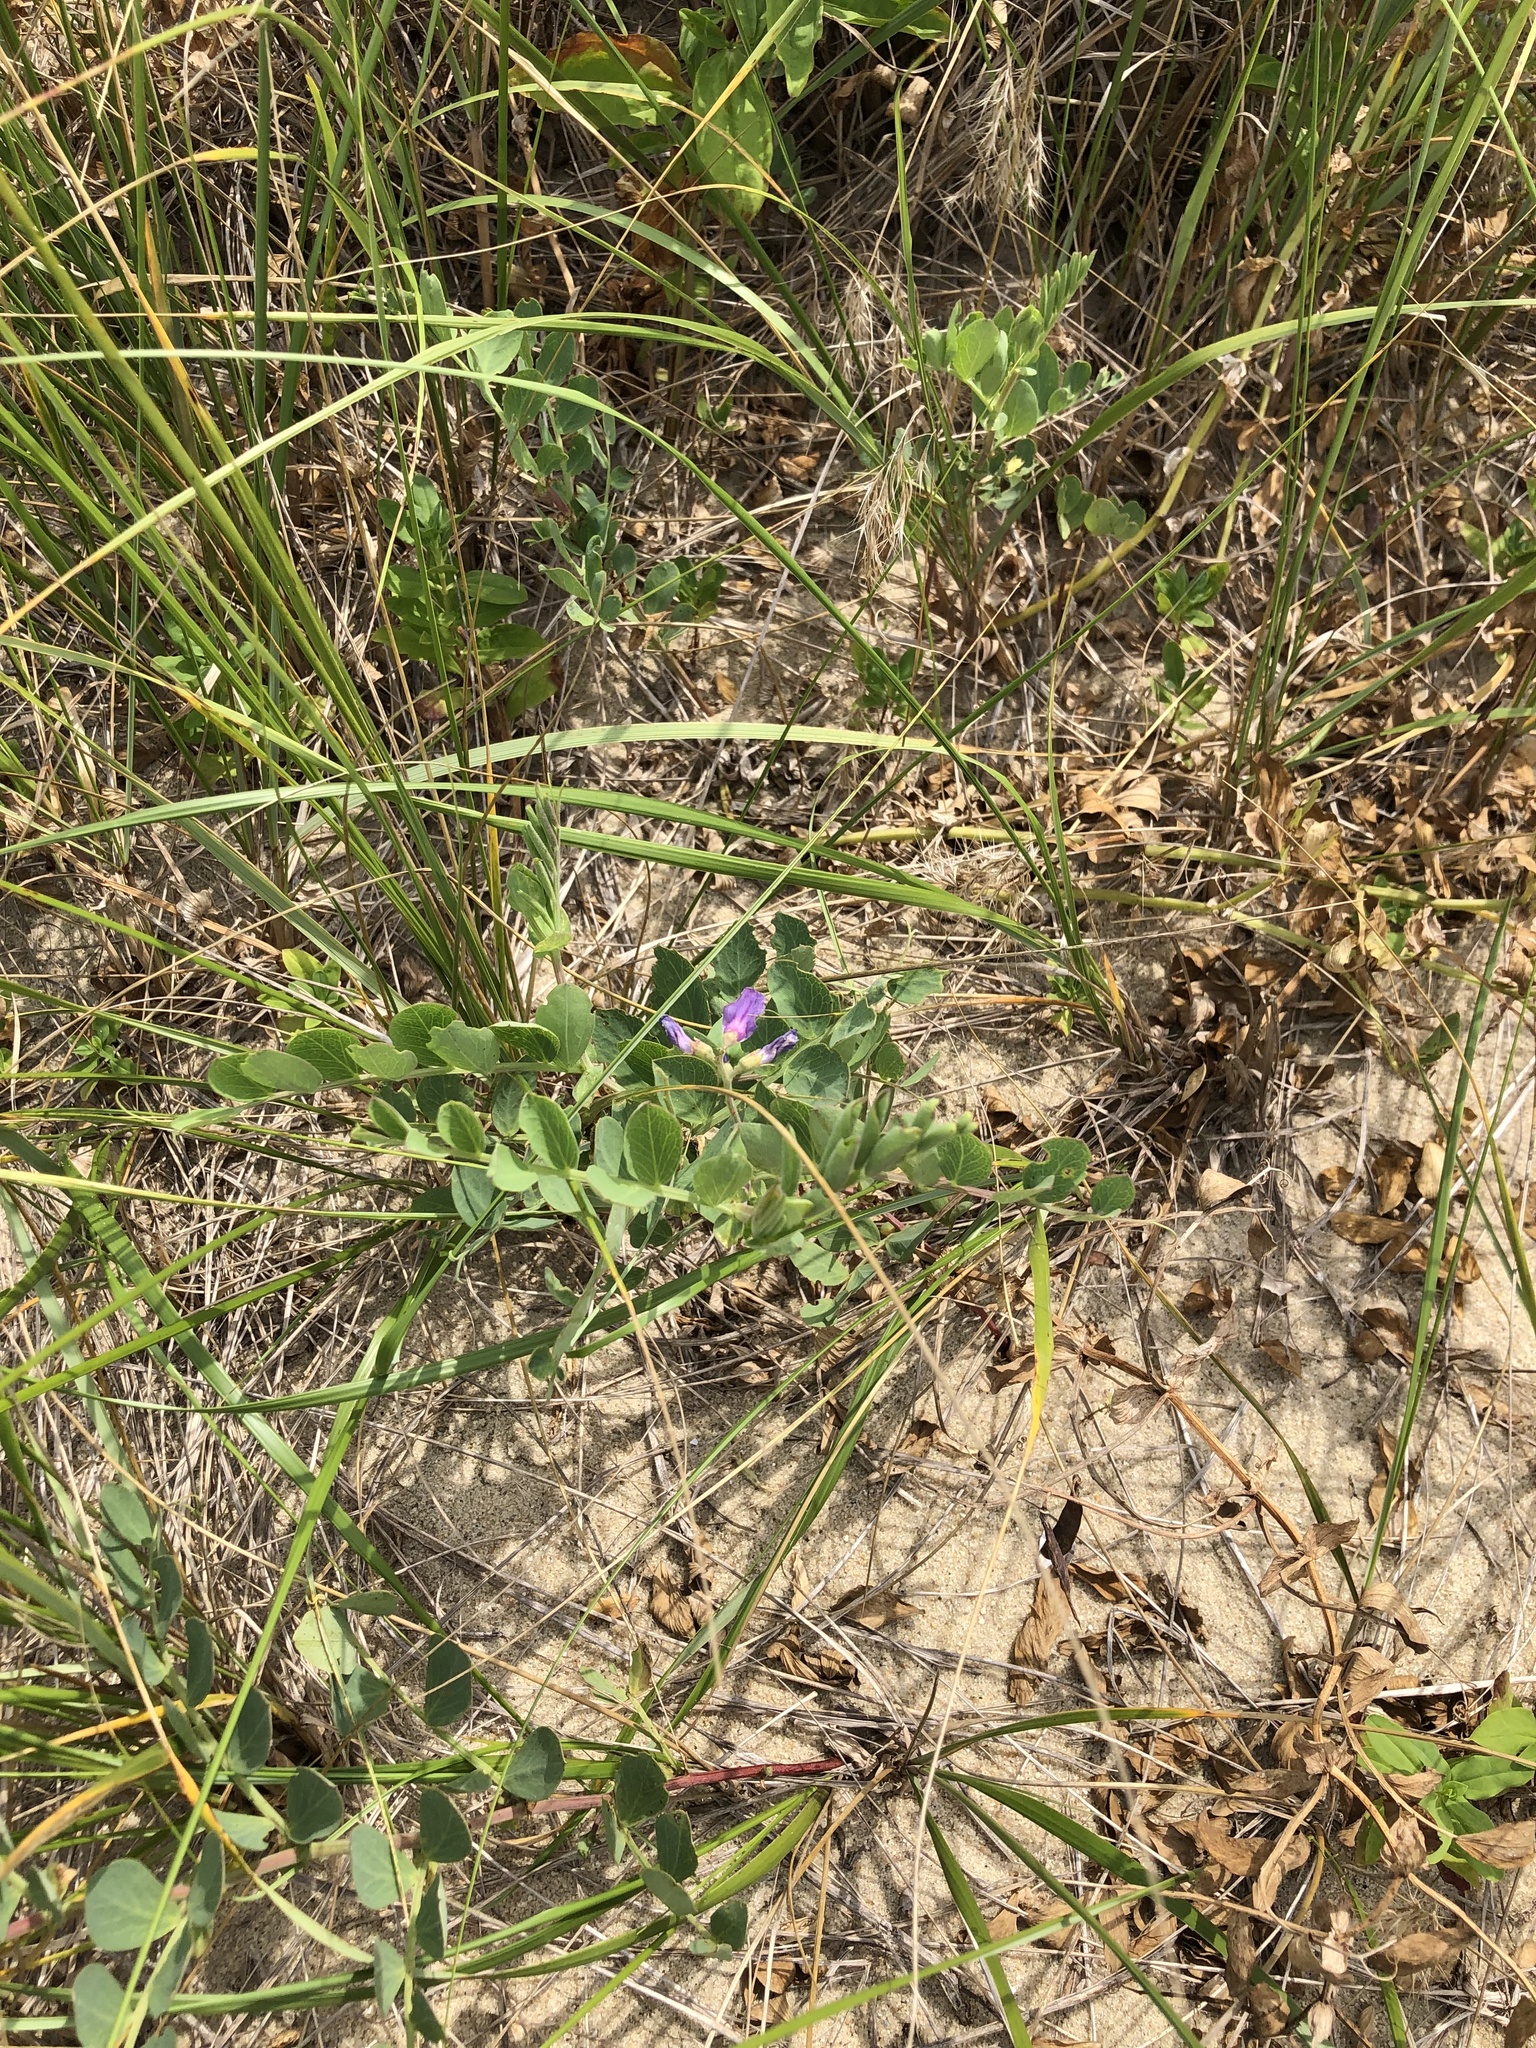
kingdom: Plantae
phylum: Tracheophyta
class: Magnoliopsida
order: Fabales
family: Fabaceae
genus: Lathyrus
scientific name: Lathyrus japonicus
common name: Sea pea
